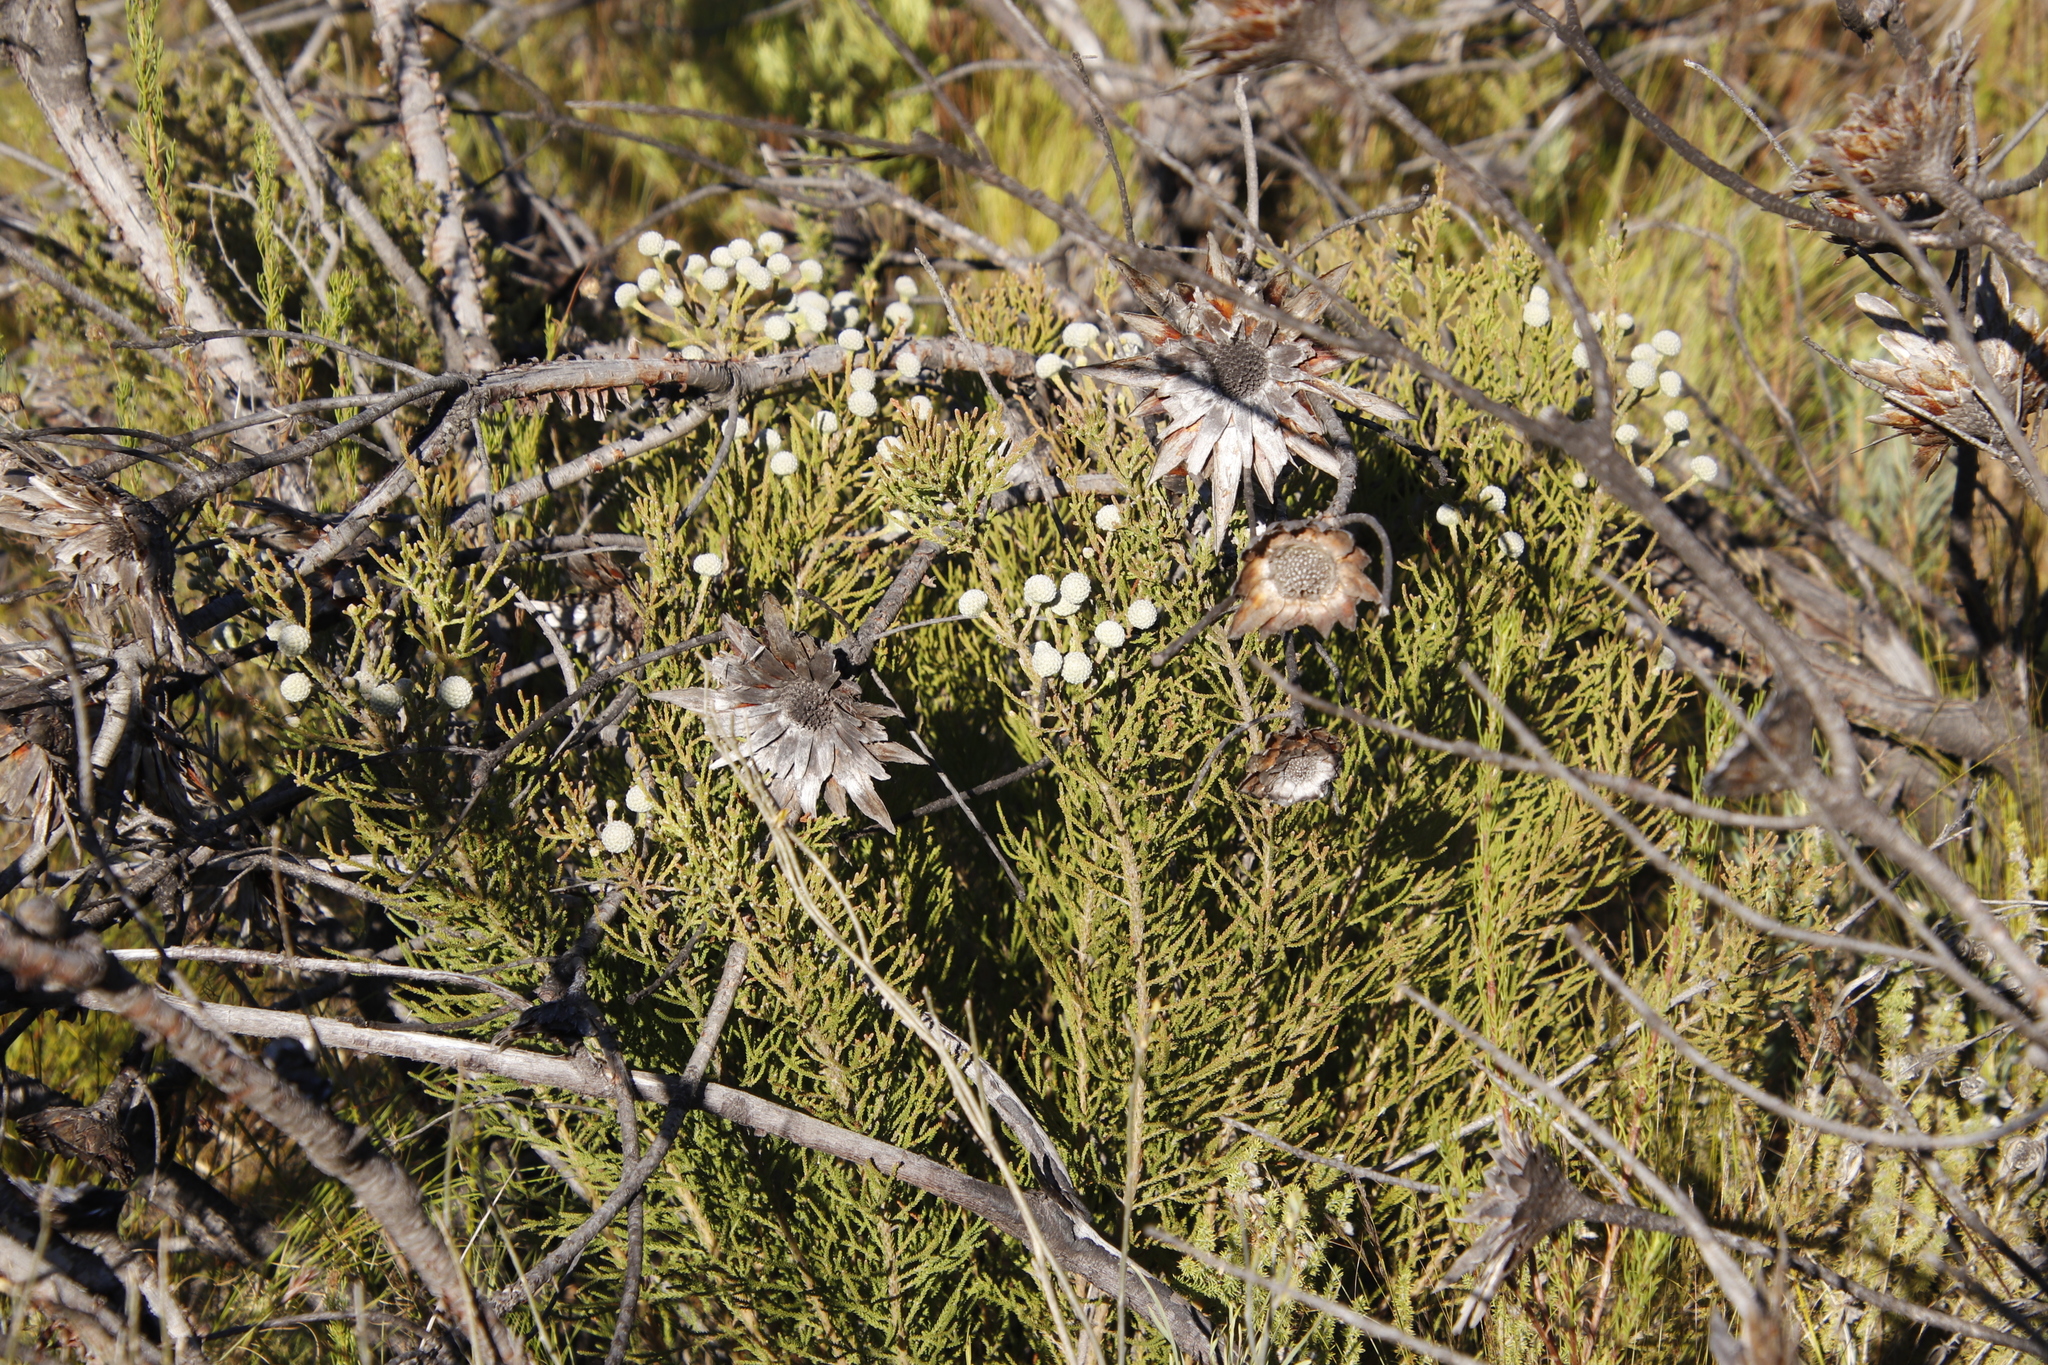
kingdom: Plantae
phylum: Tracheophyta
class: Magnoliopsida
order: Bruniales
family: Bruniaceae
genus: Brunia
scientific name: Brunia noduliflora
